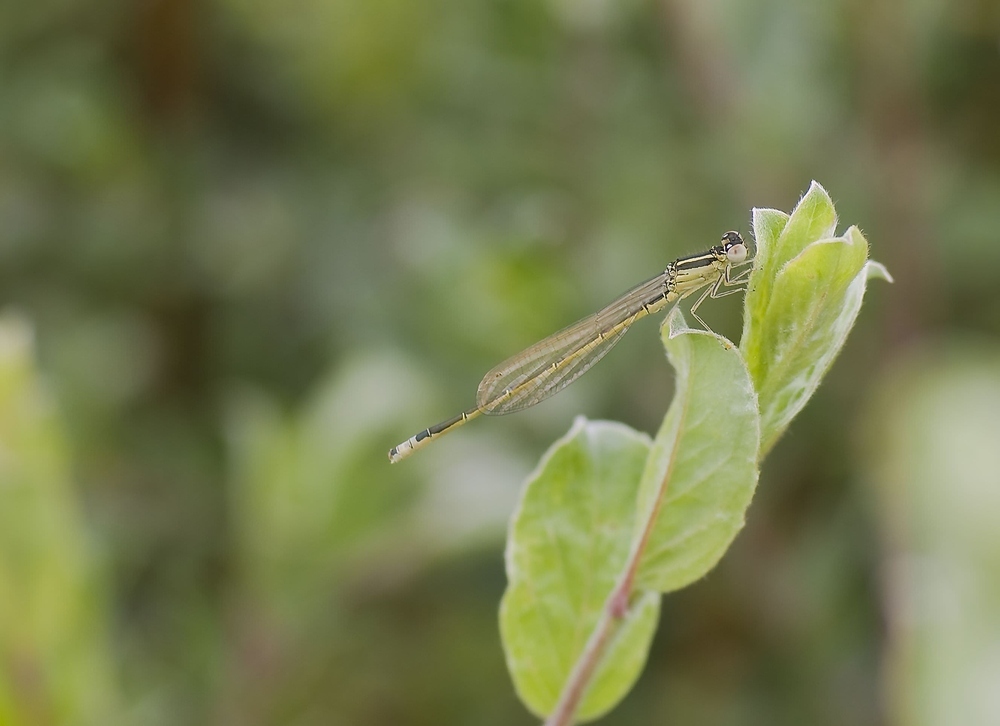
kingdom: Animalia
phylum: Arthropoda
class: Insecta
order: Odonata
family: Coenagrionidae
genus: Ischnura
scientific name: Ischnura pumilio
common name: Scarce blue-tailed damselfly
